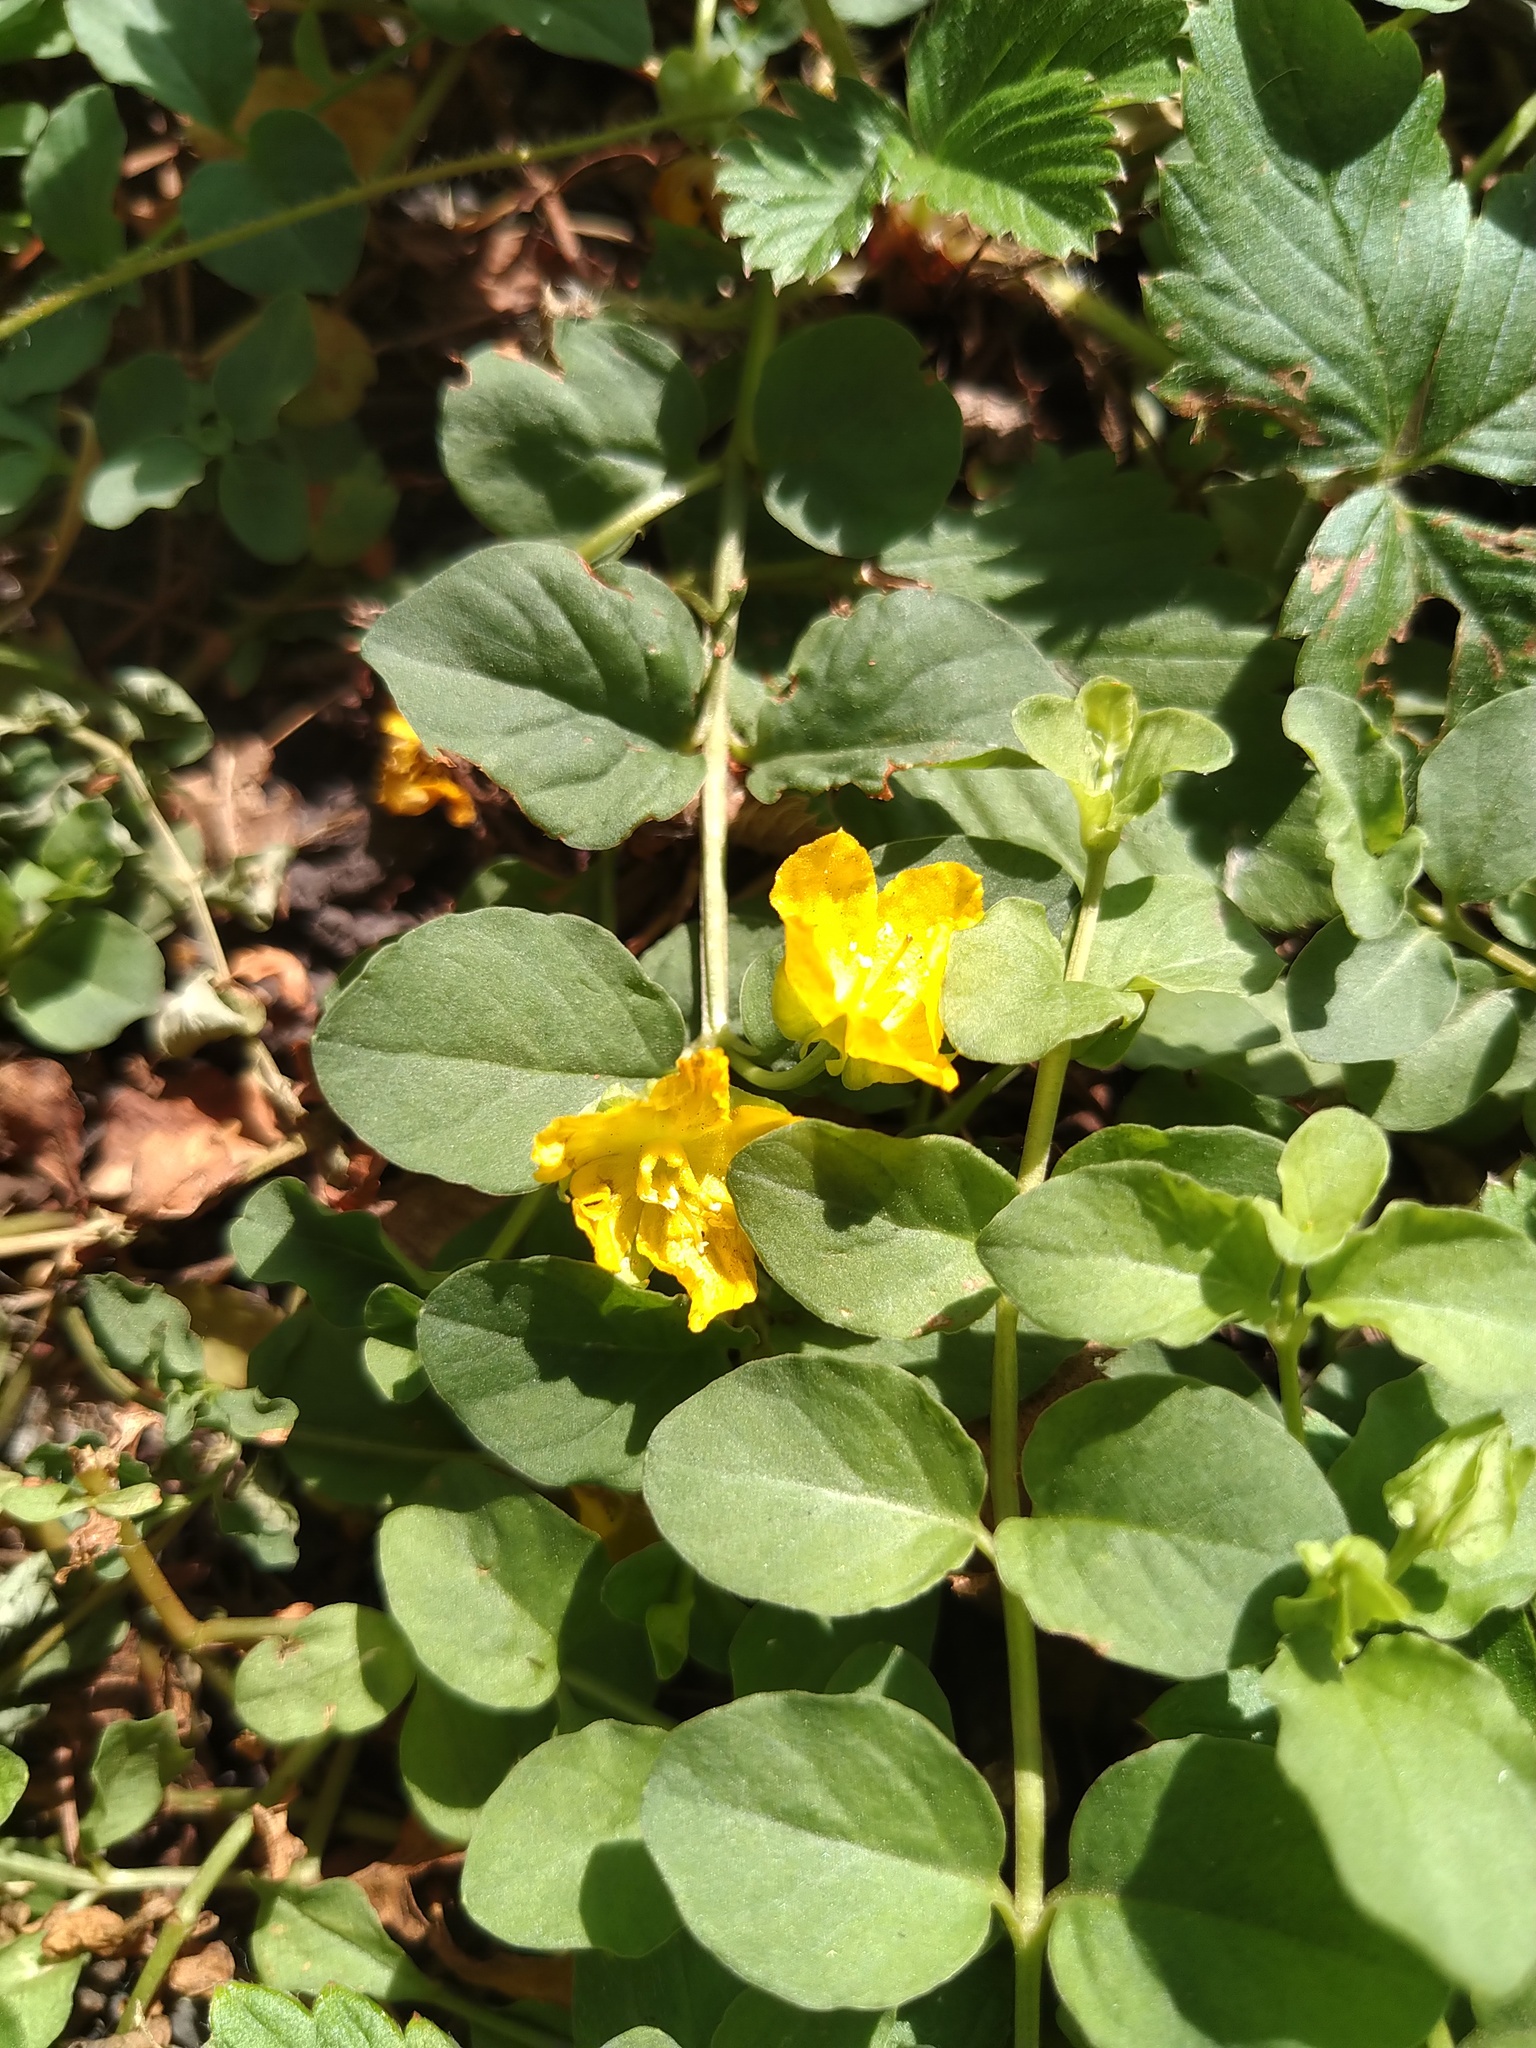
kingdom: Plantae
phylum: Tracheophyta
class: Magnoliopsida
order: Ericales
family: Primulaceae
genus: Lysimachia
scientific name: Lysimachia nummularia
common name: Moneywort
